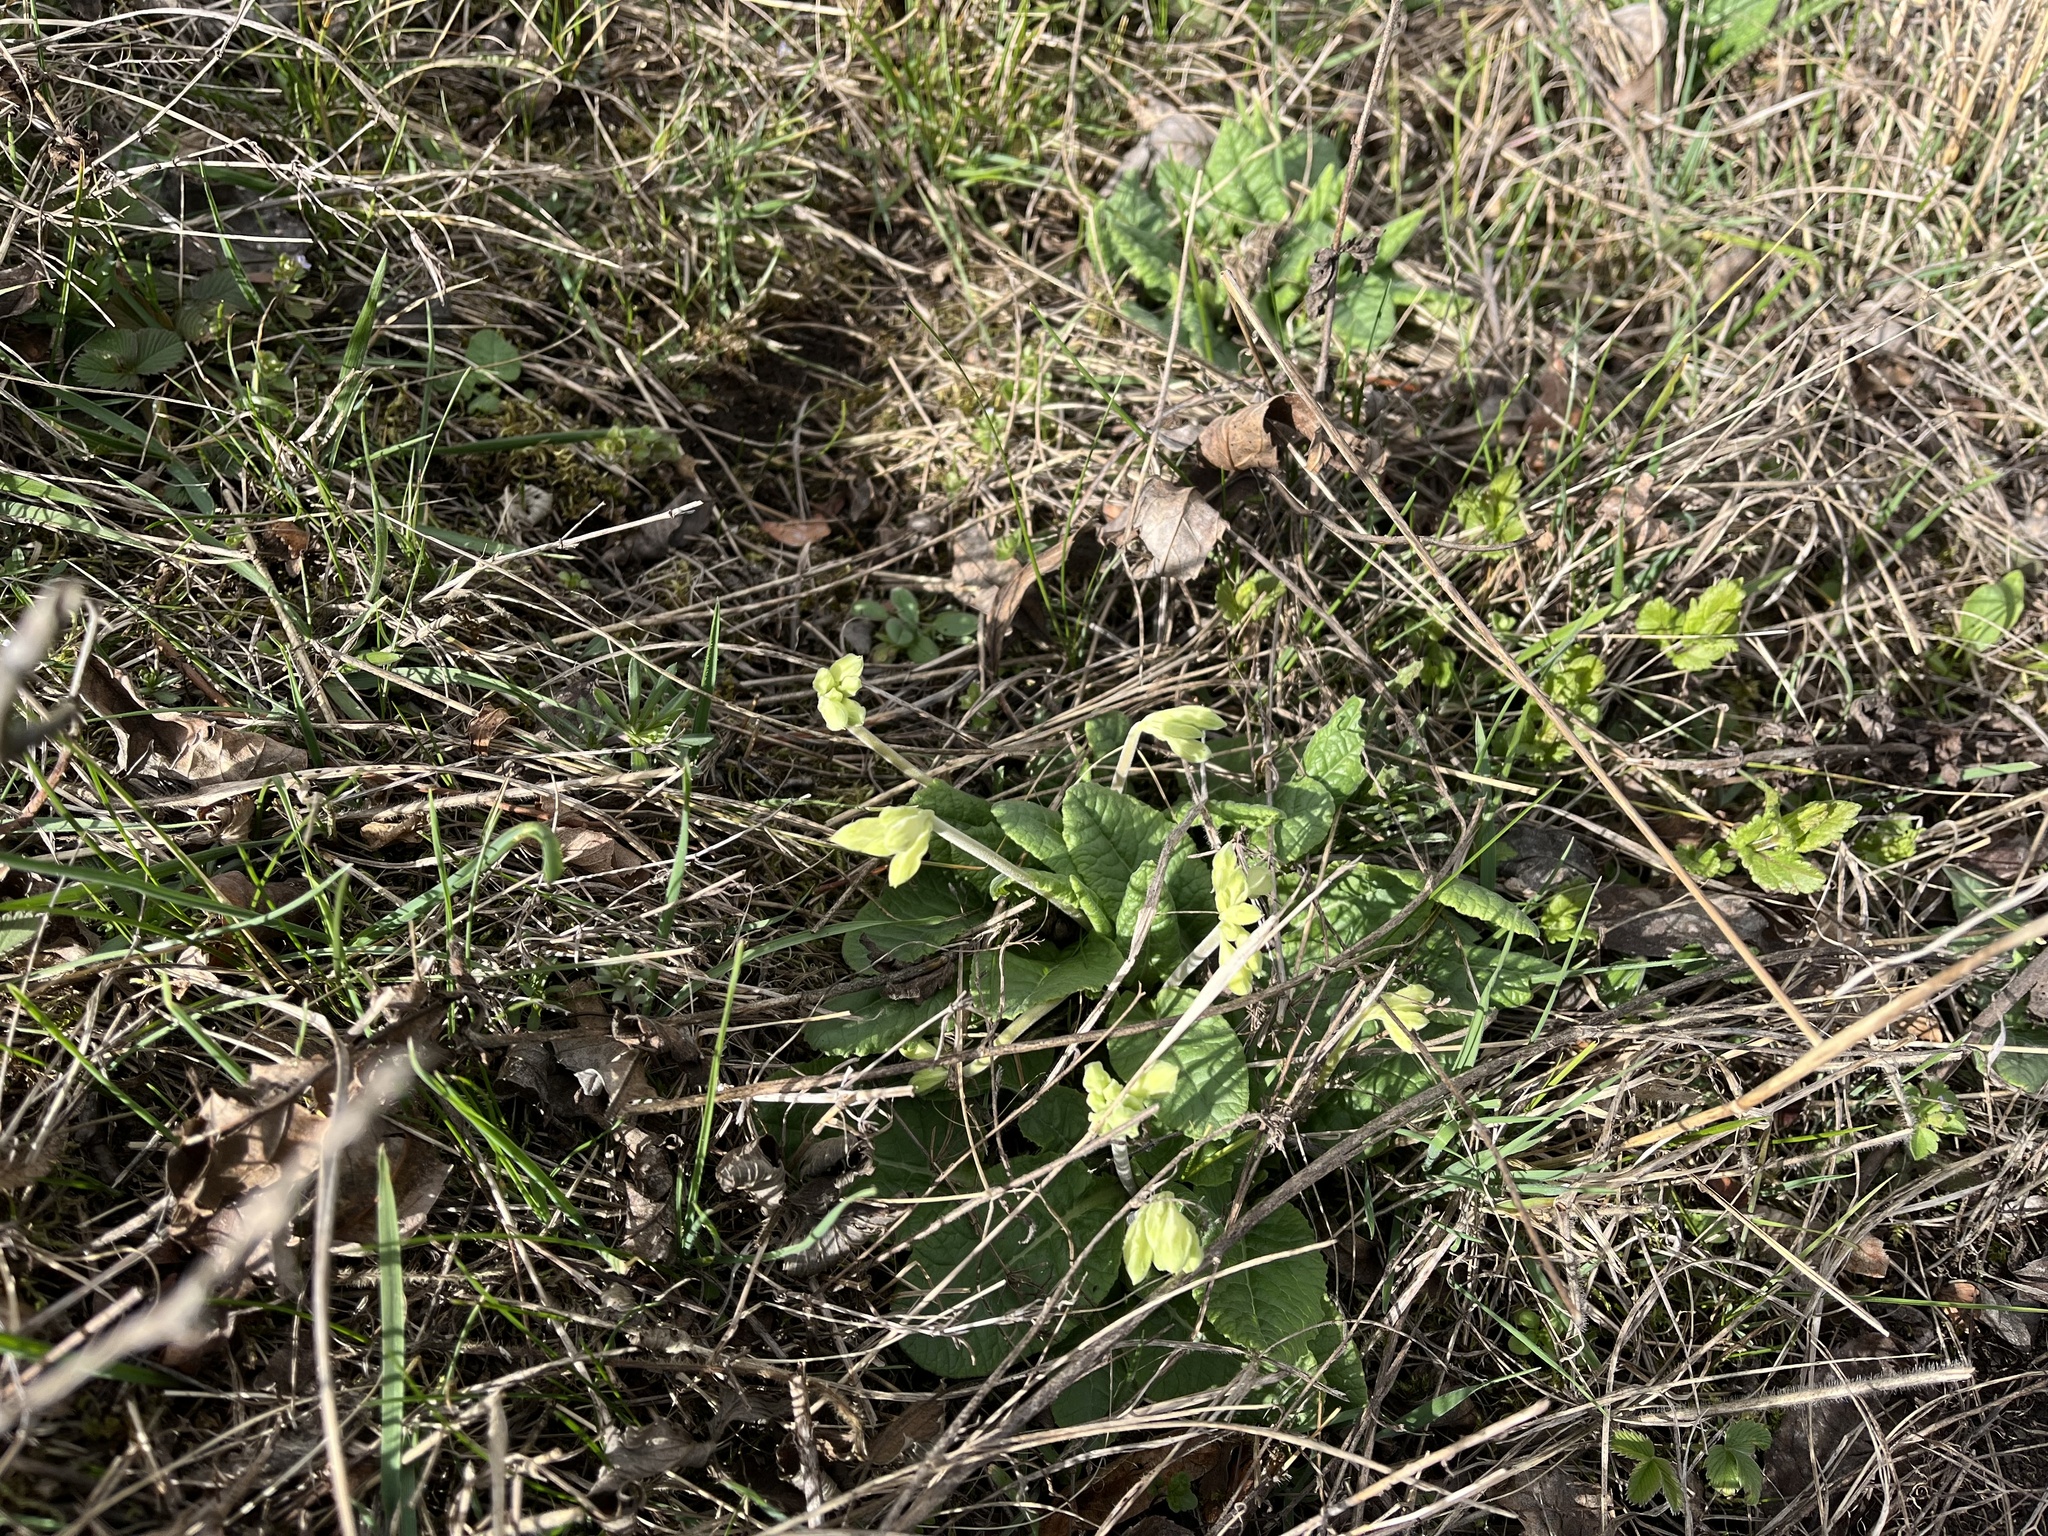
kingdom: Plantae
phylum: Tracheophyta
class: Magnoliopsida
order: Ericales
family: Primulaceae
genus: Primula
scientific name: Primula veris
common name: Cowslip
